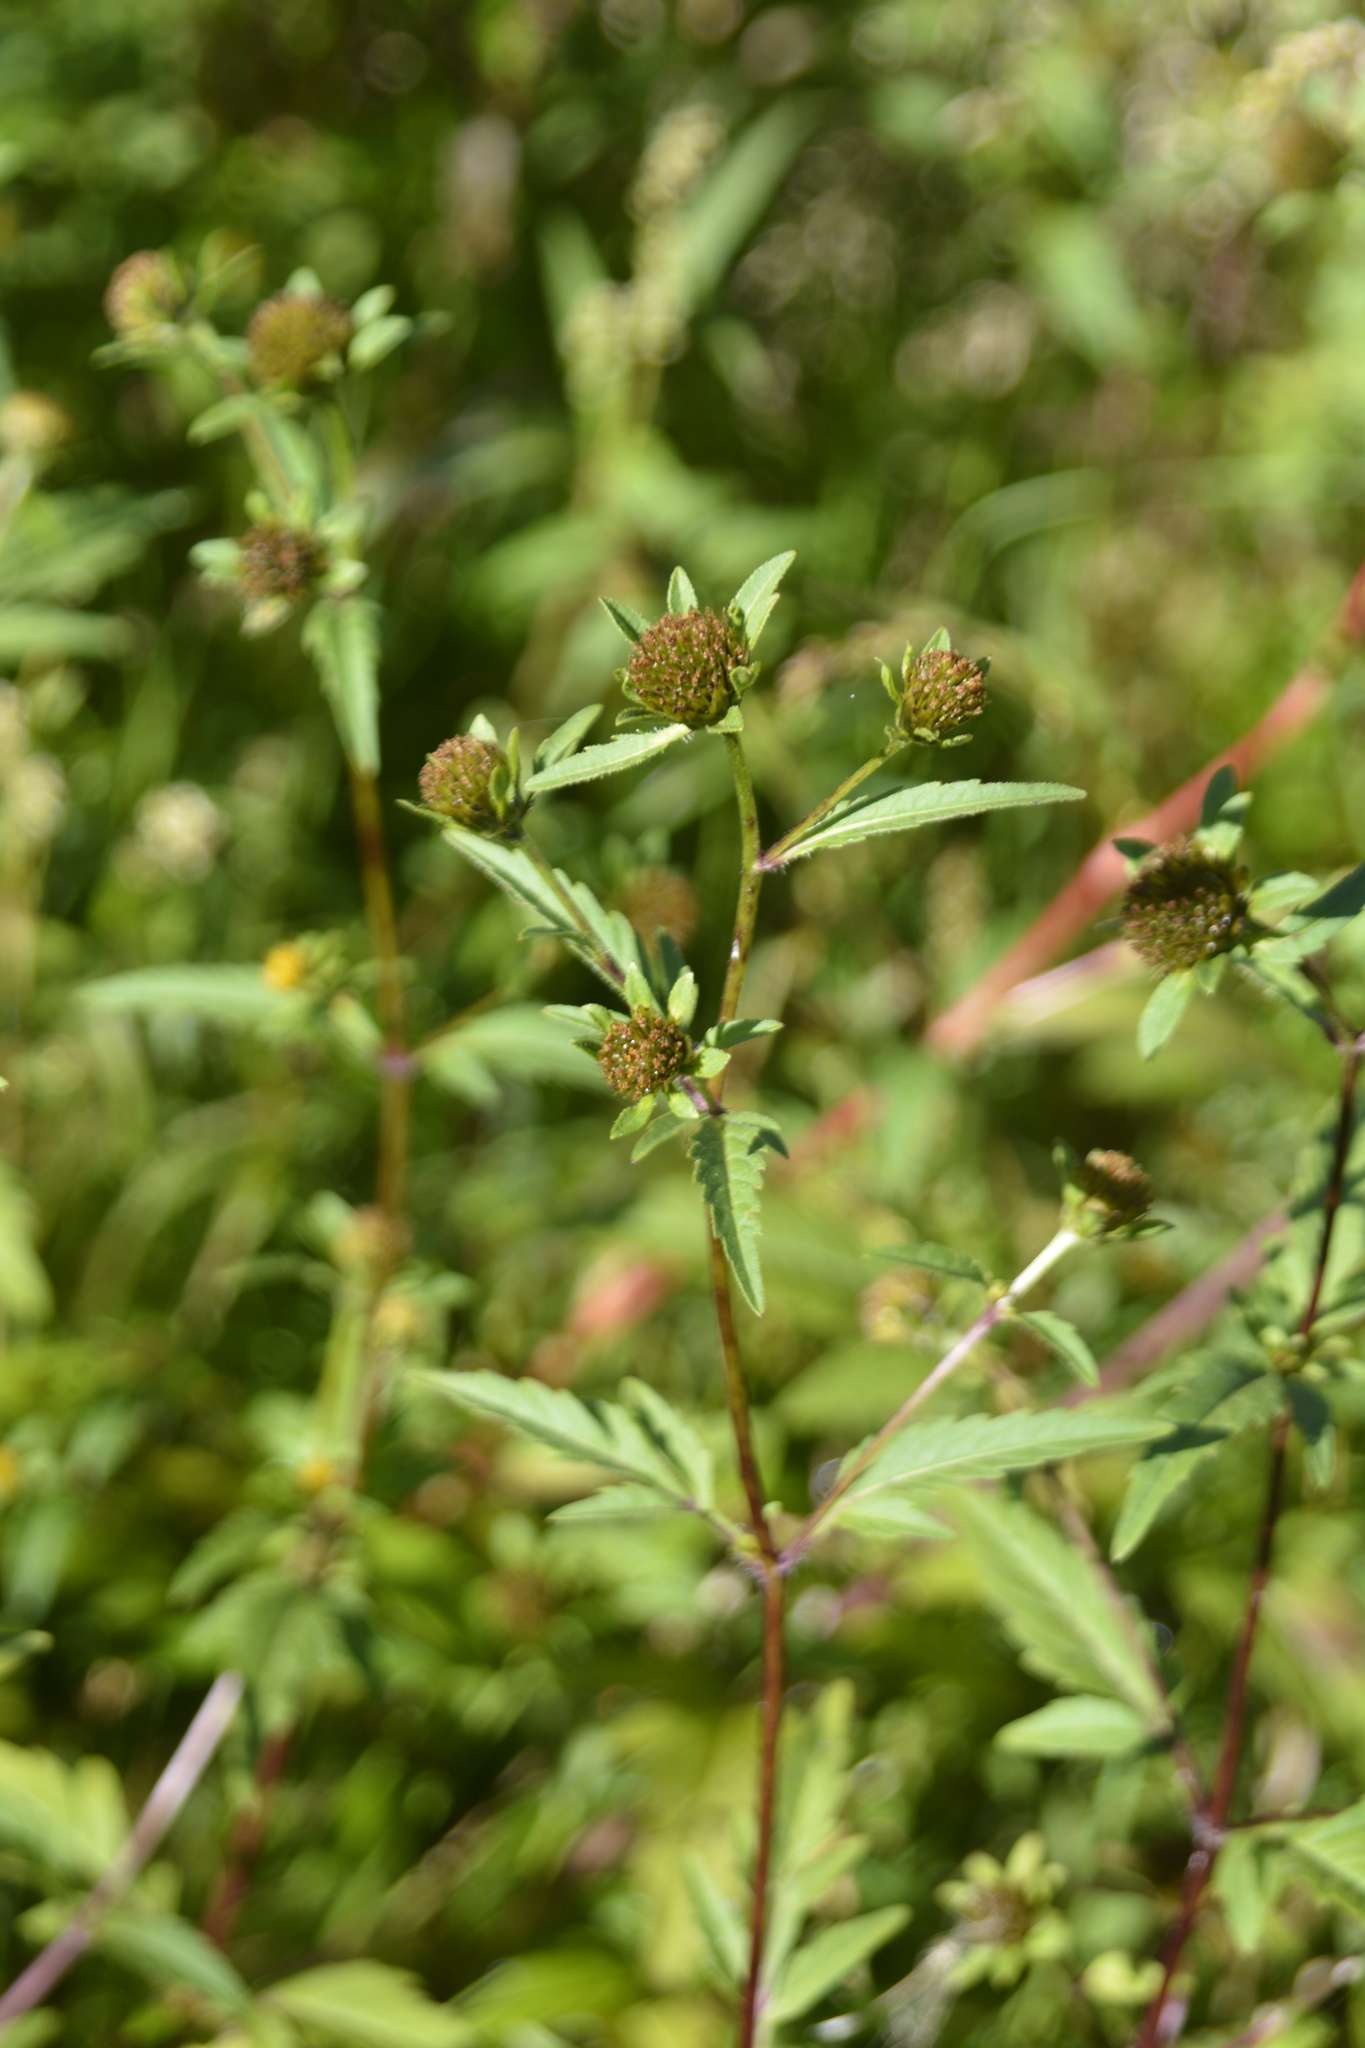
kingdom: Plantae
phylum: Tracheophyta
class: Magnoliopsida
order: Asterales
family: Asteraceae
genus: Bidens
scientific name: Bidens tripartita
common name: Trifid bur-marigold
